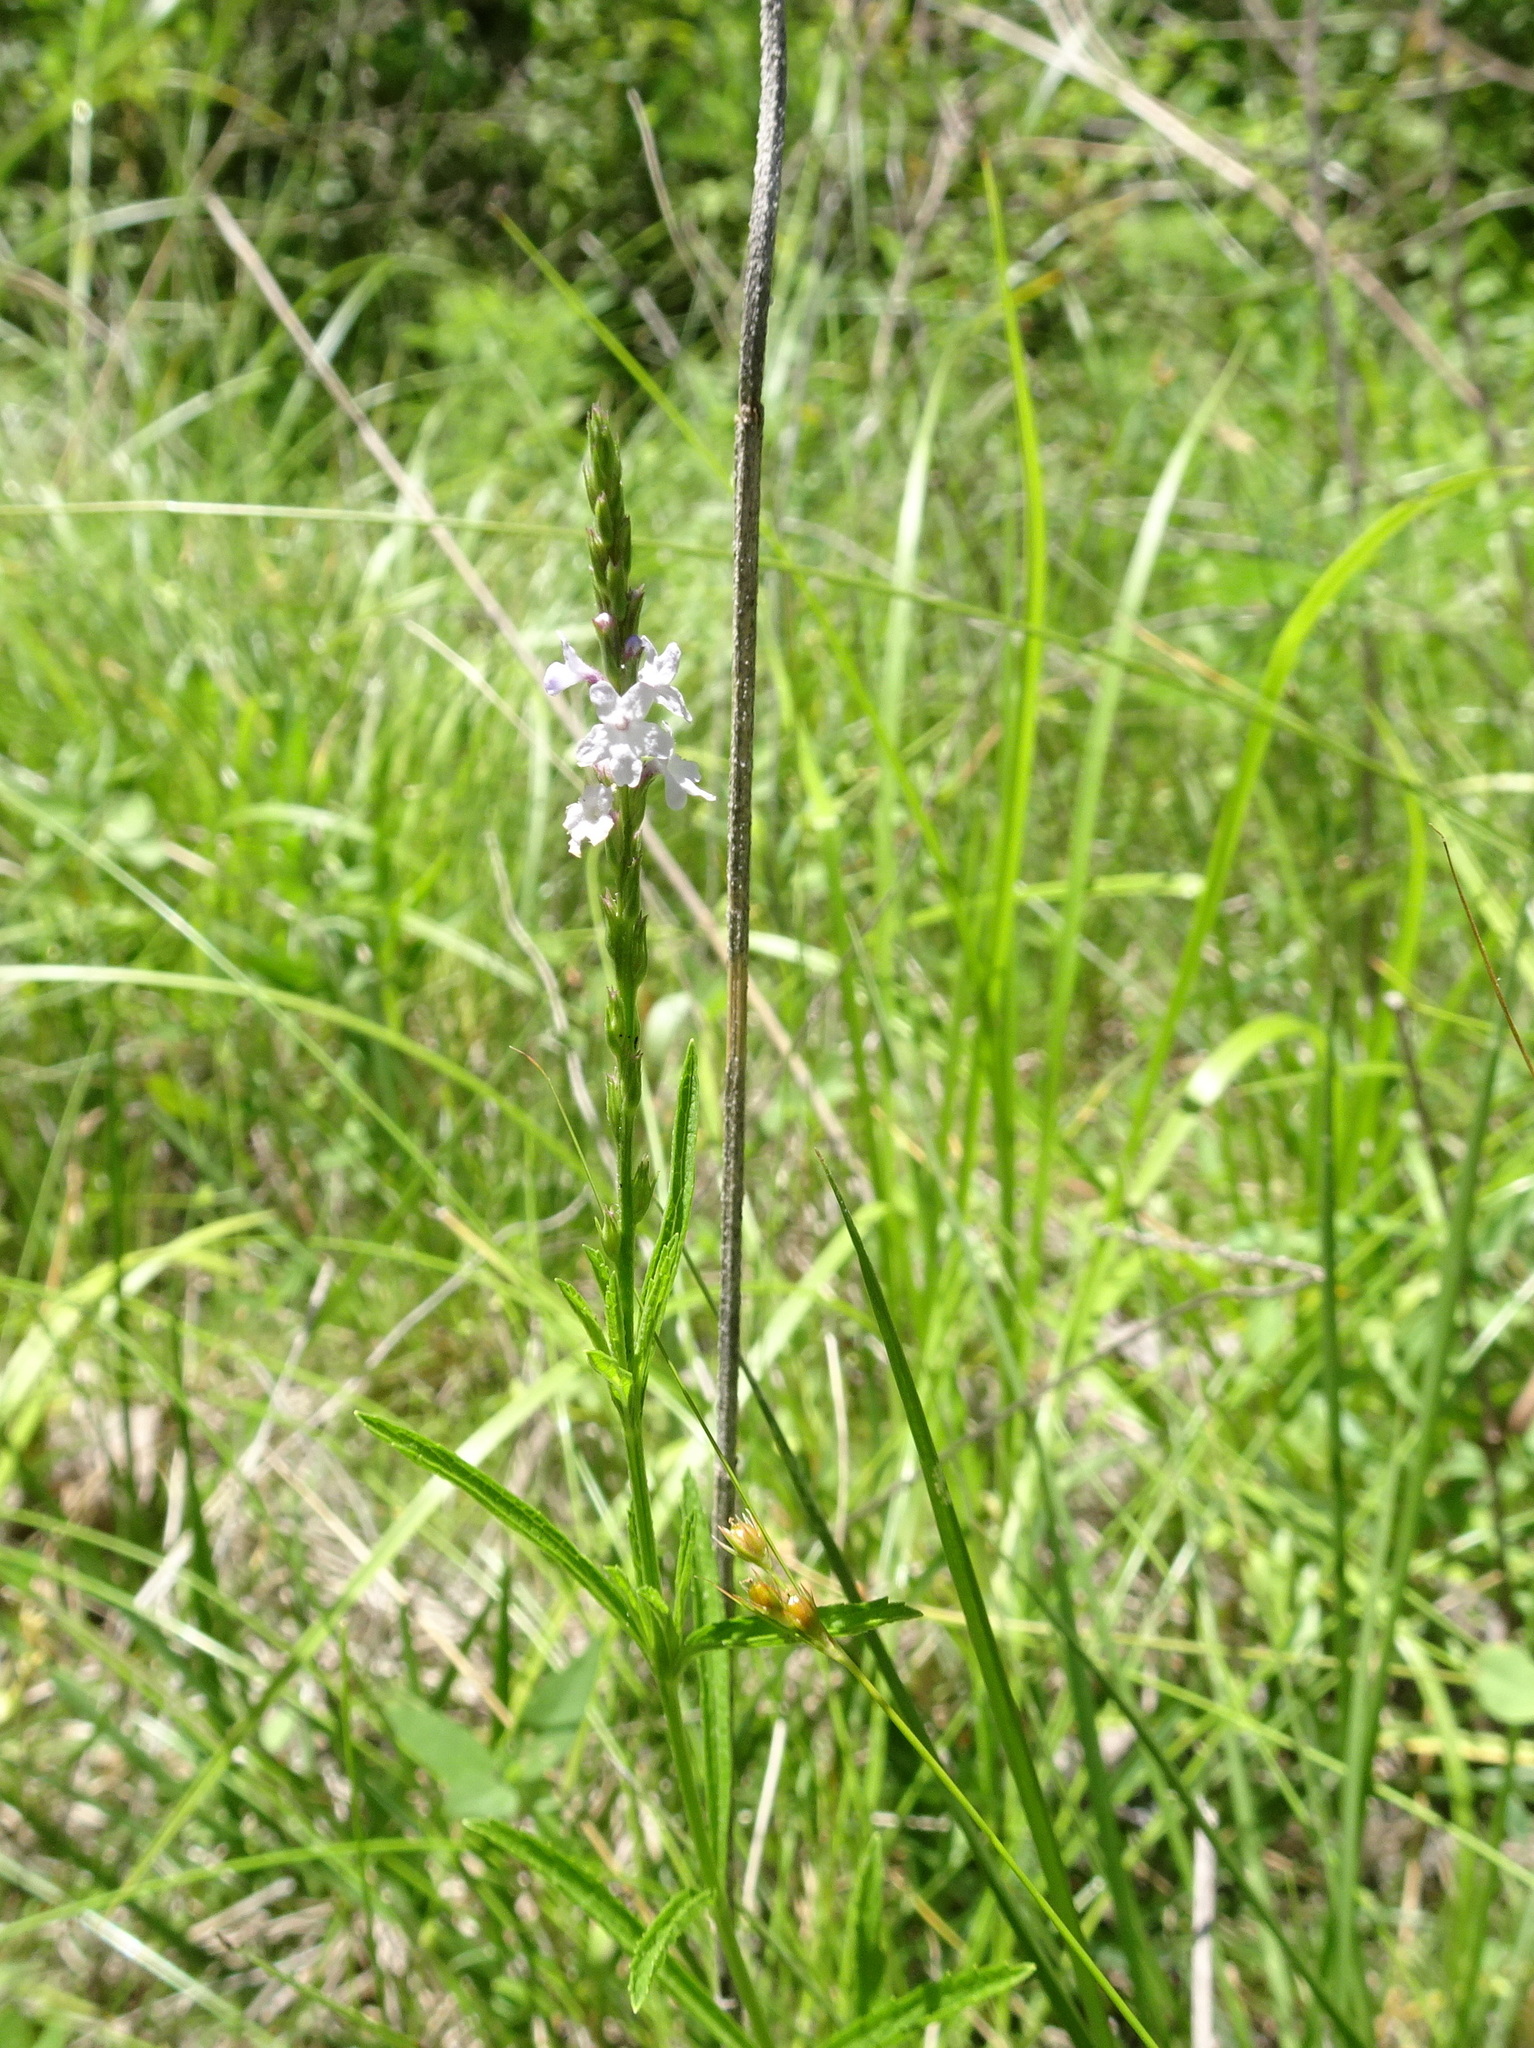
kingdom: Plantae
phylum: Tracheophyta
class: Magnoliopsida
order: Lamiales
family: Verbenaceae
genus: Verbena
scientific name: Verbena simplex
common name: Narrow-leaf vervain
